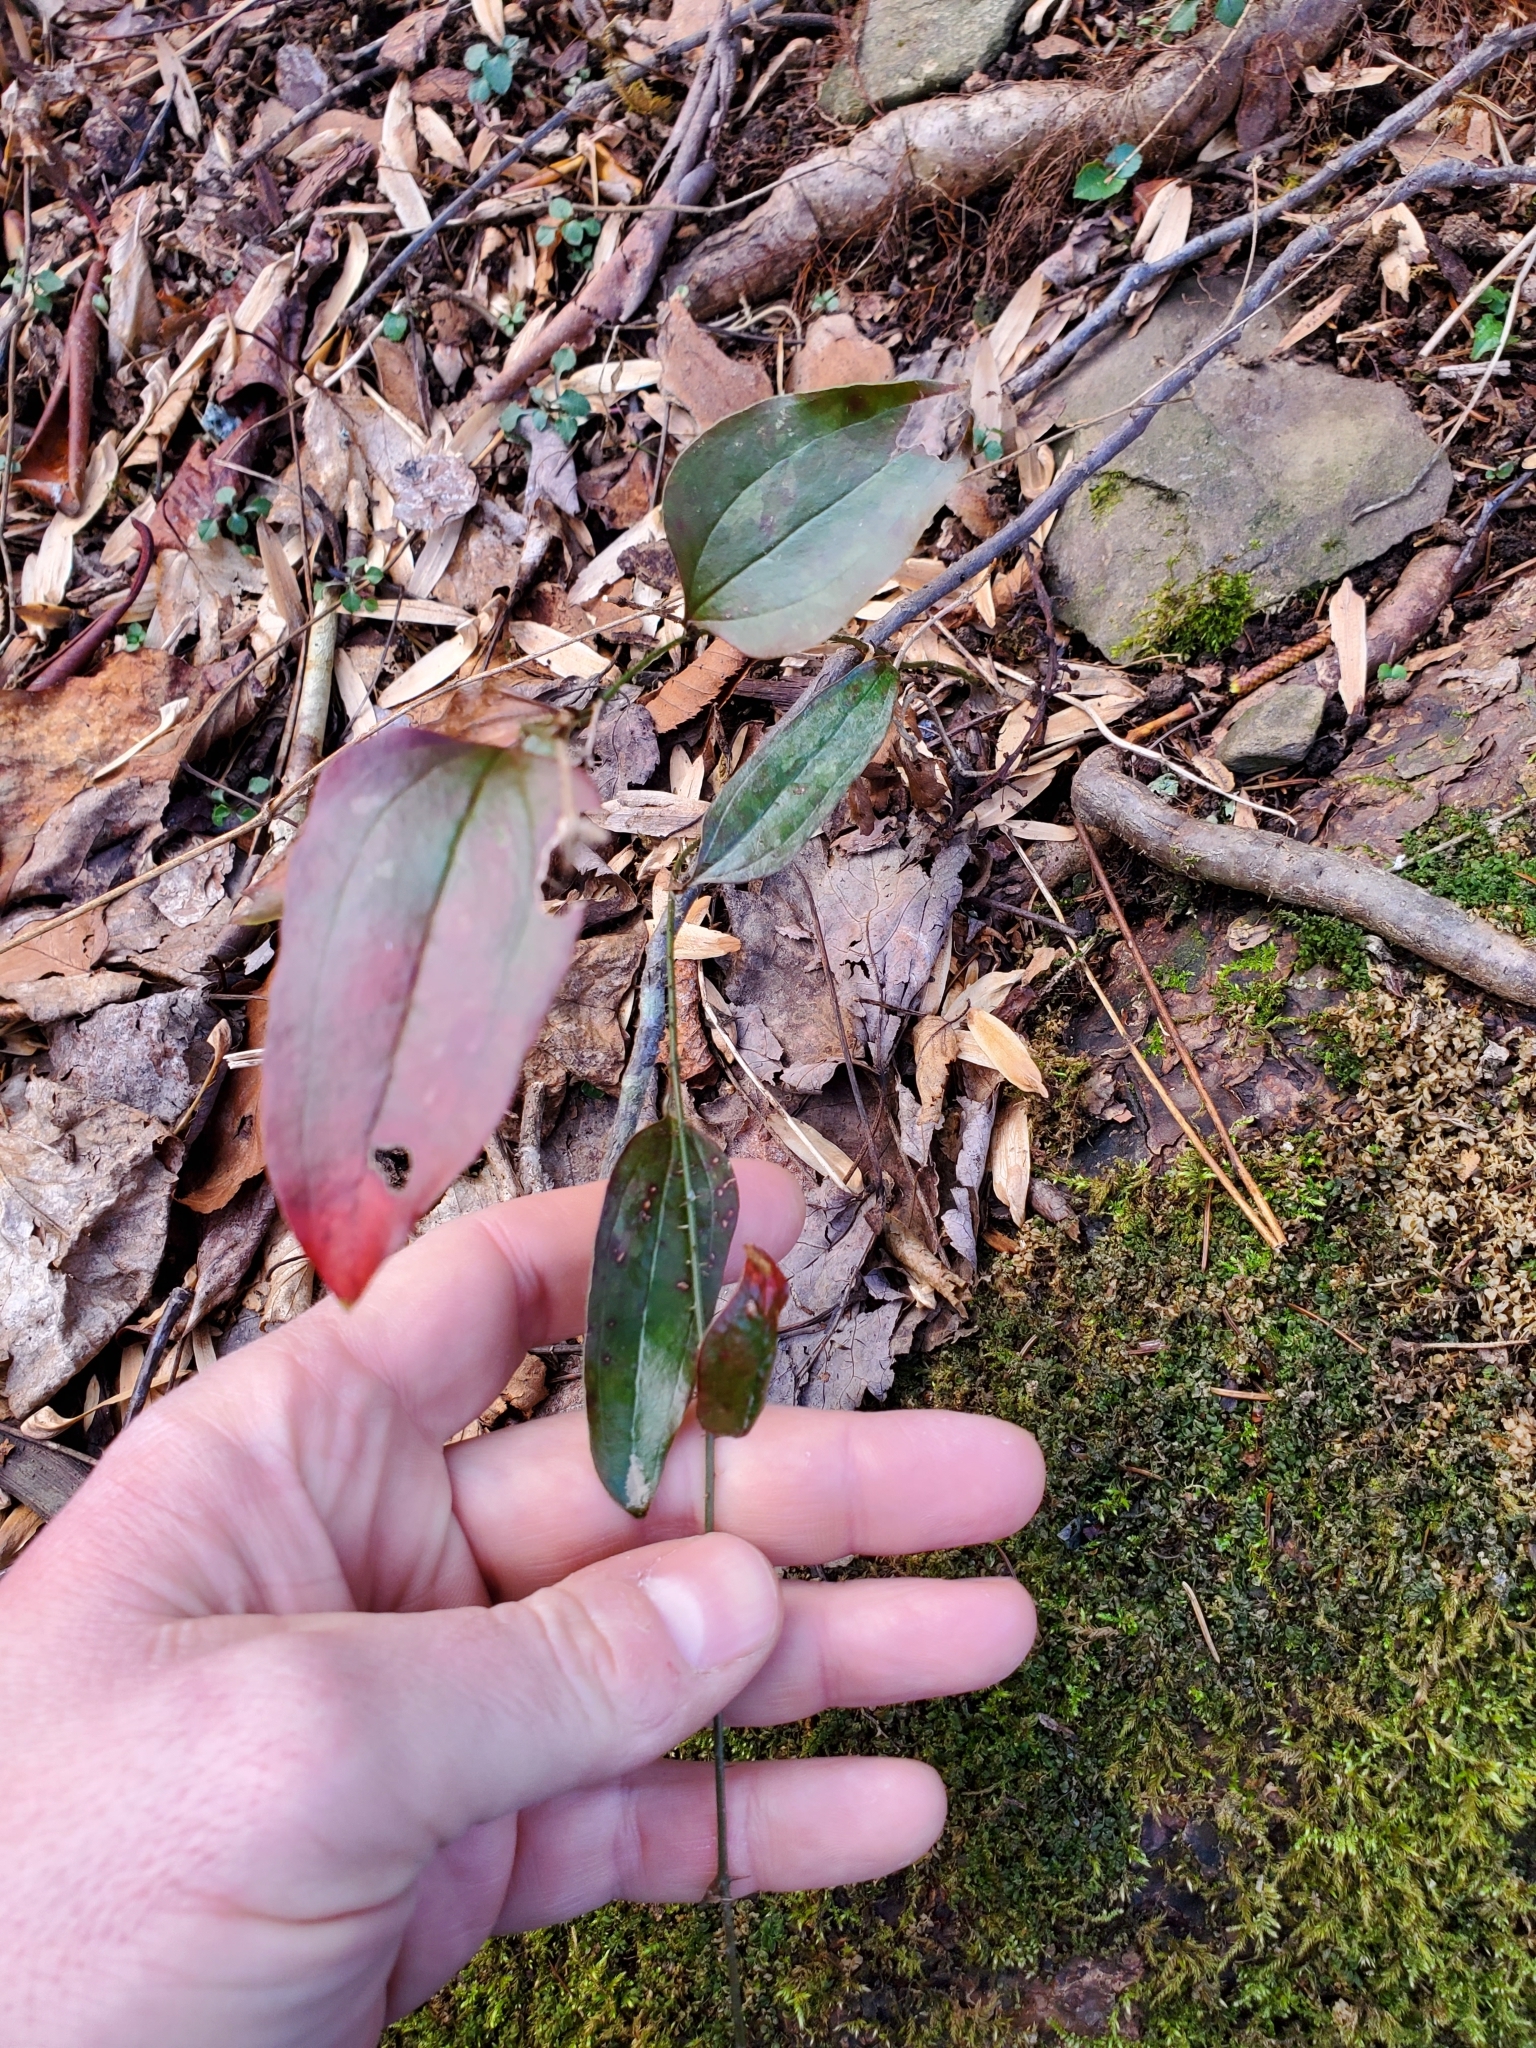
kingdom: Plantae
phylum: Tracheophyta
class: Liliopsida
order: Liliales
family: Smilacaceae
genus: Smilax
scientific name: Smilax glauca
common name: Cat greenbrier
